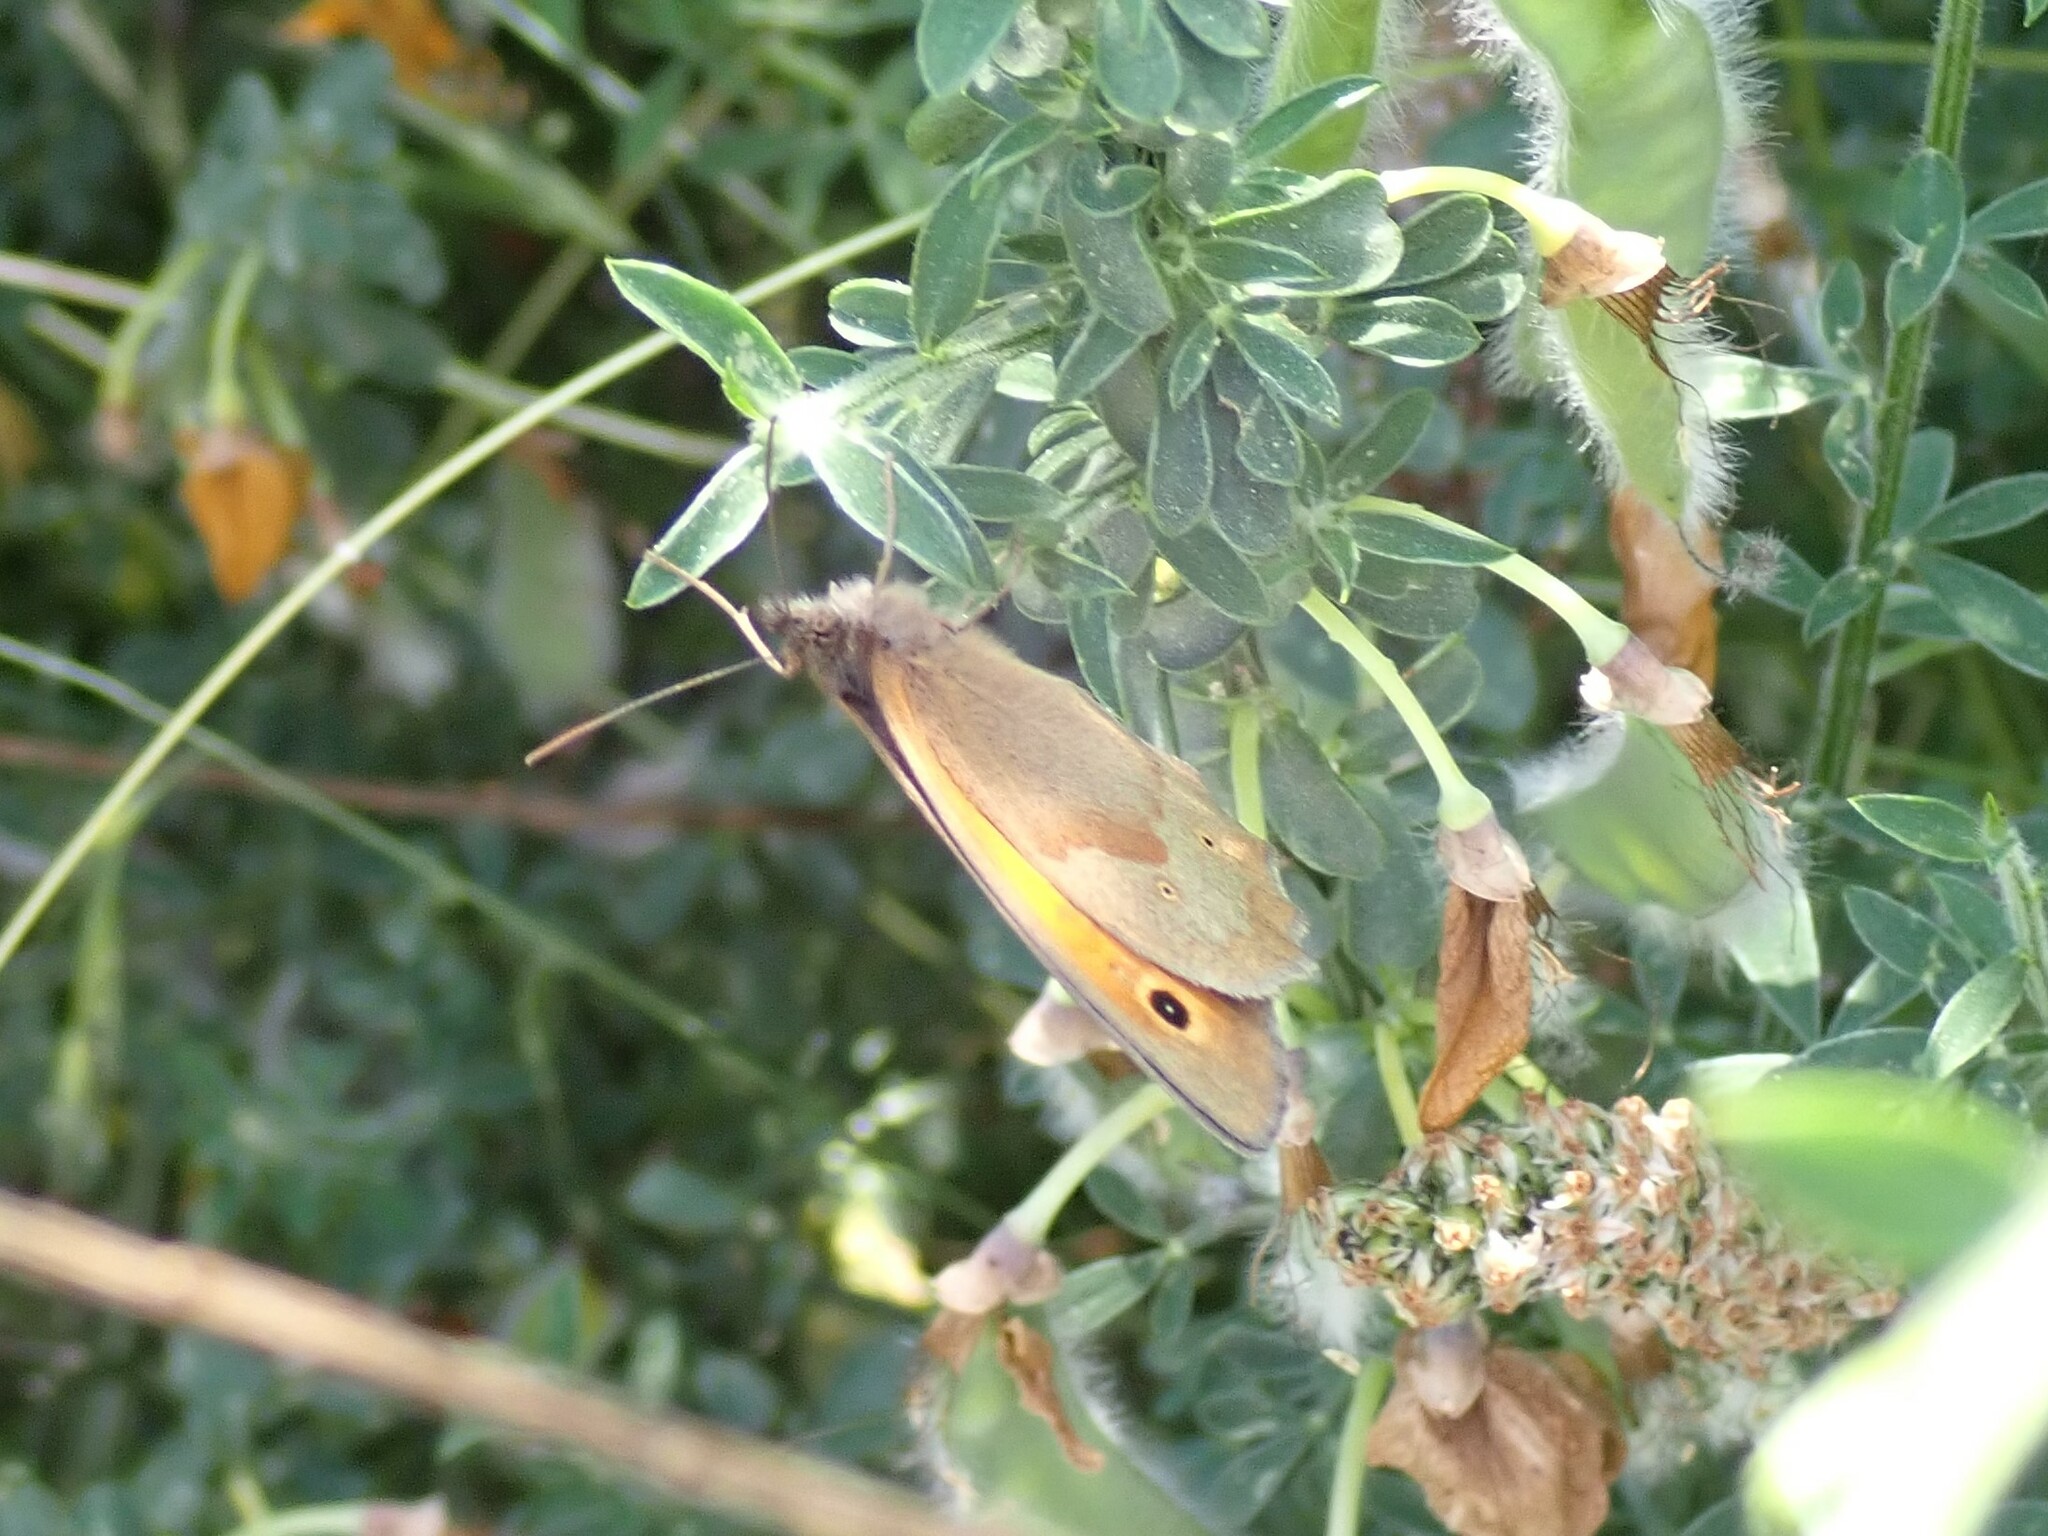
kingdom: Animalia
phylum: Arthropoda
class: Insecta
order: Lepidoptera
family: Nymphalidae
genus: Maniola
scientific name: Maniola jurtina
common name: Meadow brown
